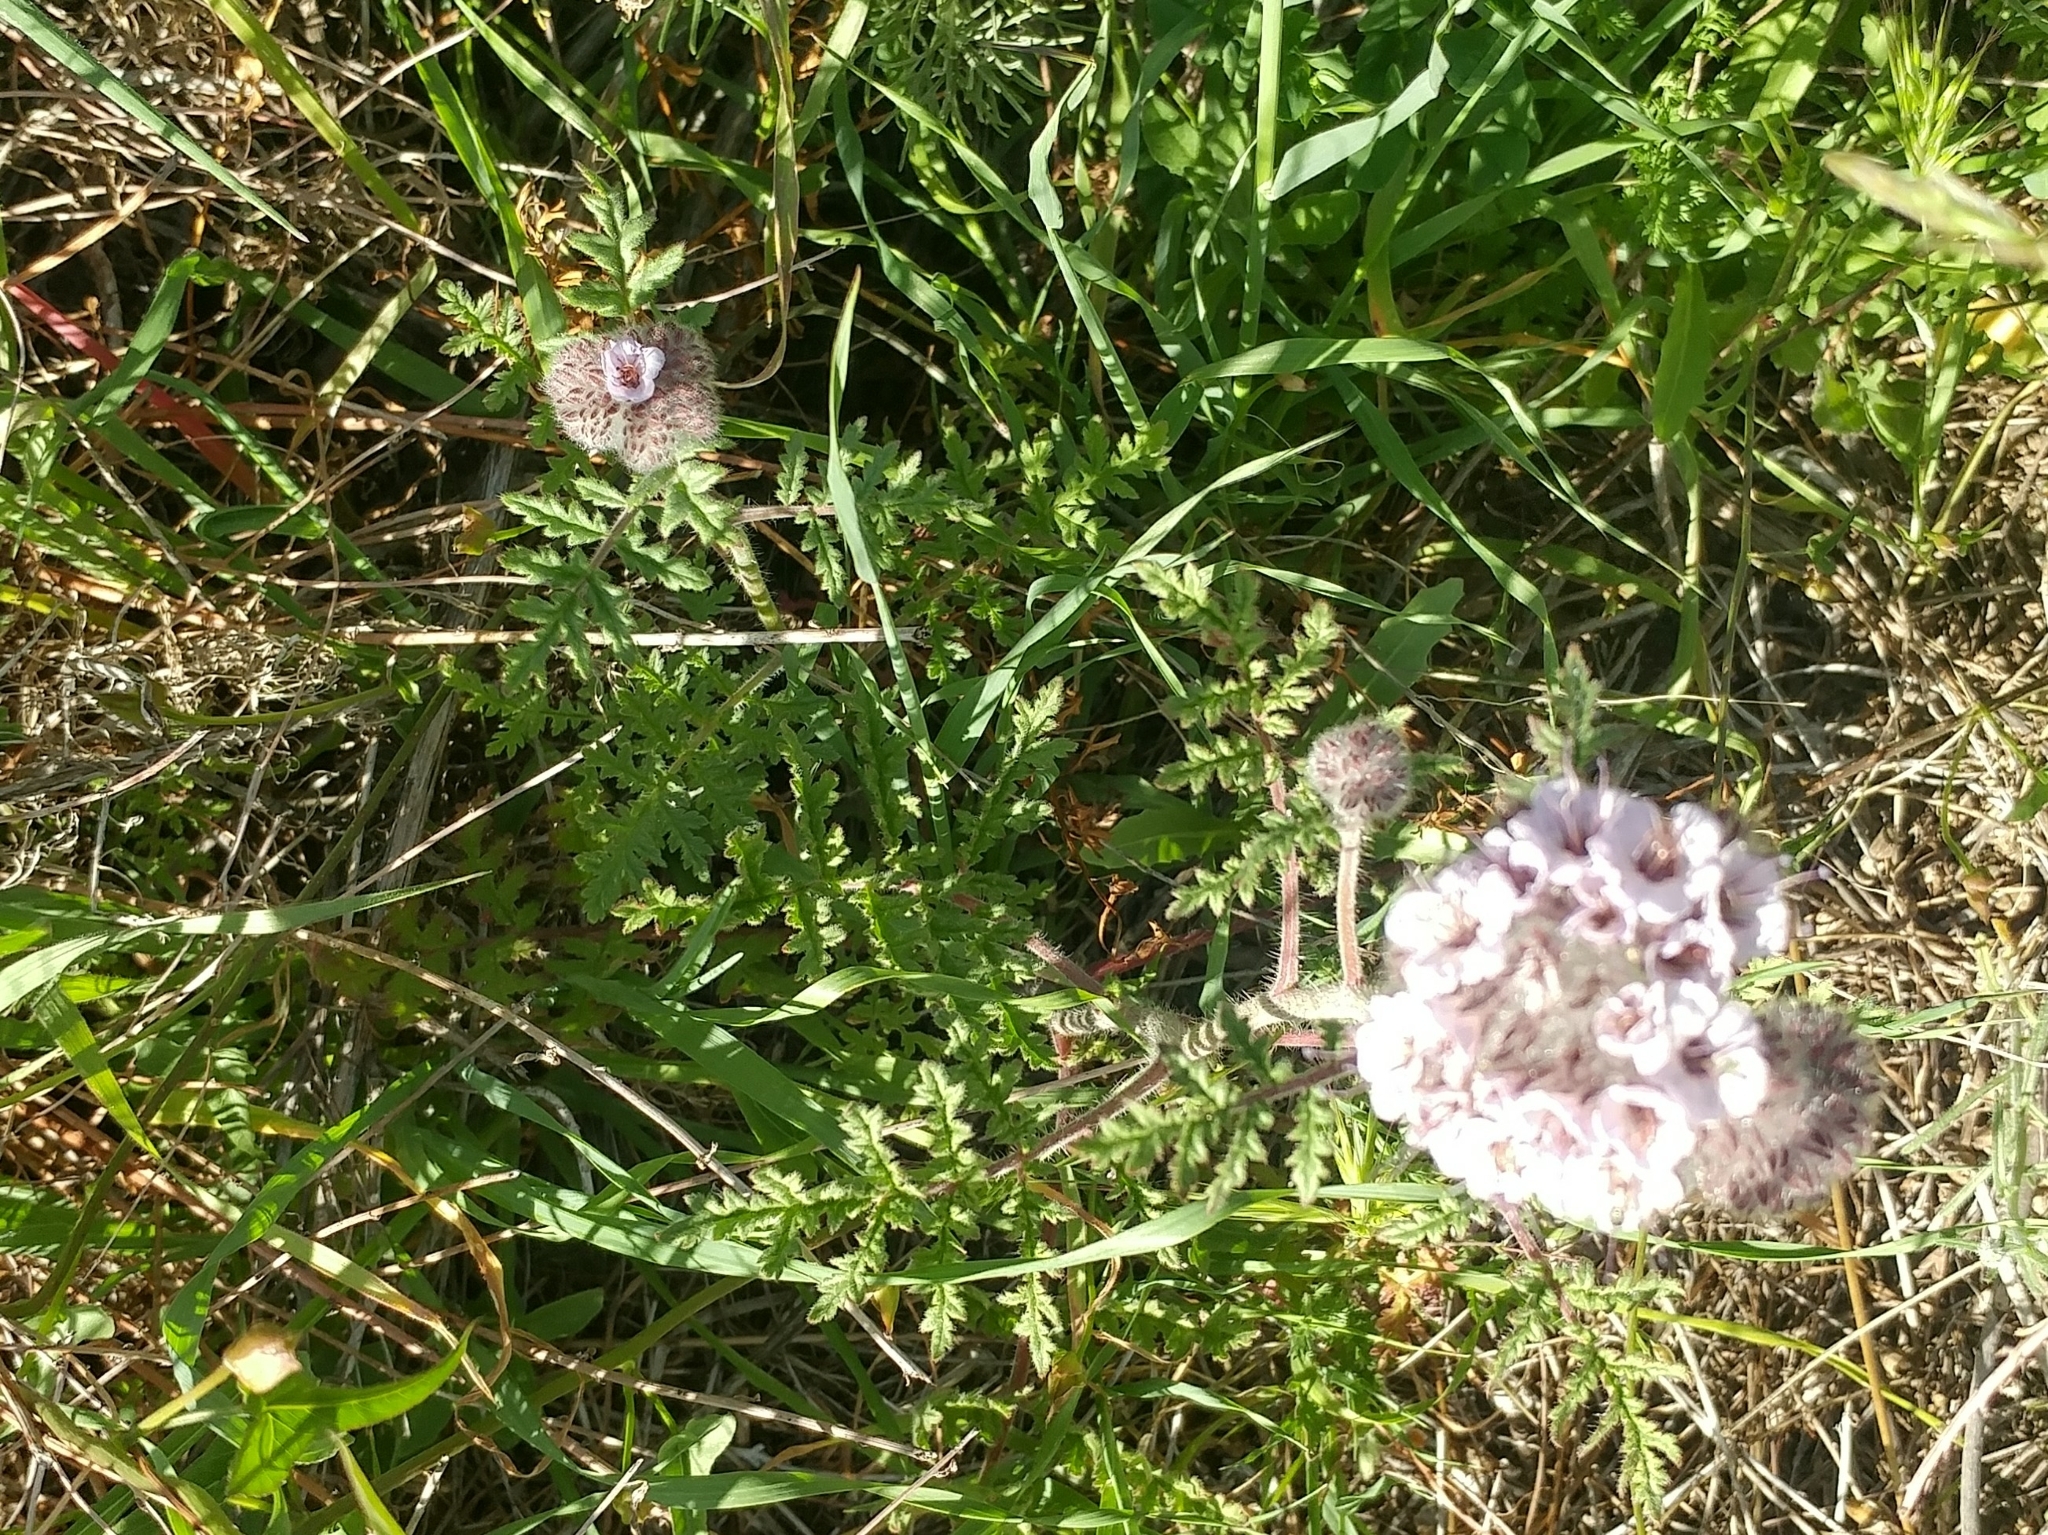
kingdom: Plantae
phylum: Tracheophyta
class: Magnoliopsida
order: Boraginales
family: Hydrophyllaceae
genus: Phacelia
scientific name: Phacelia hubbyi
